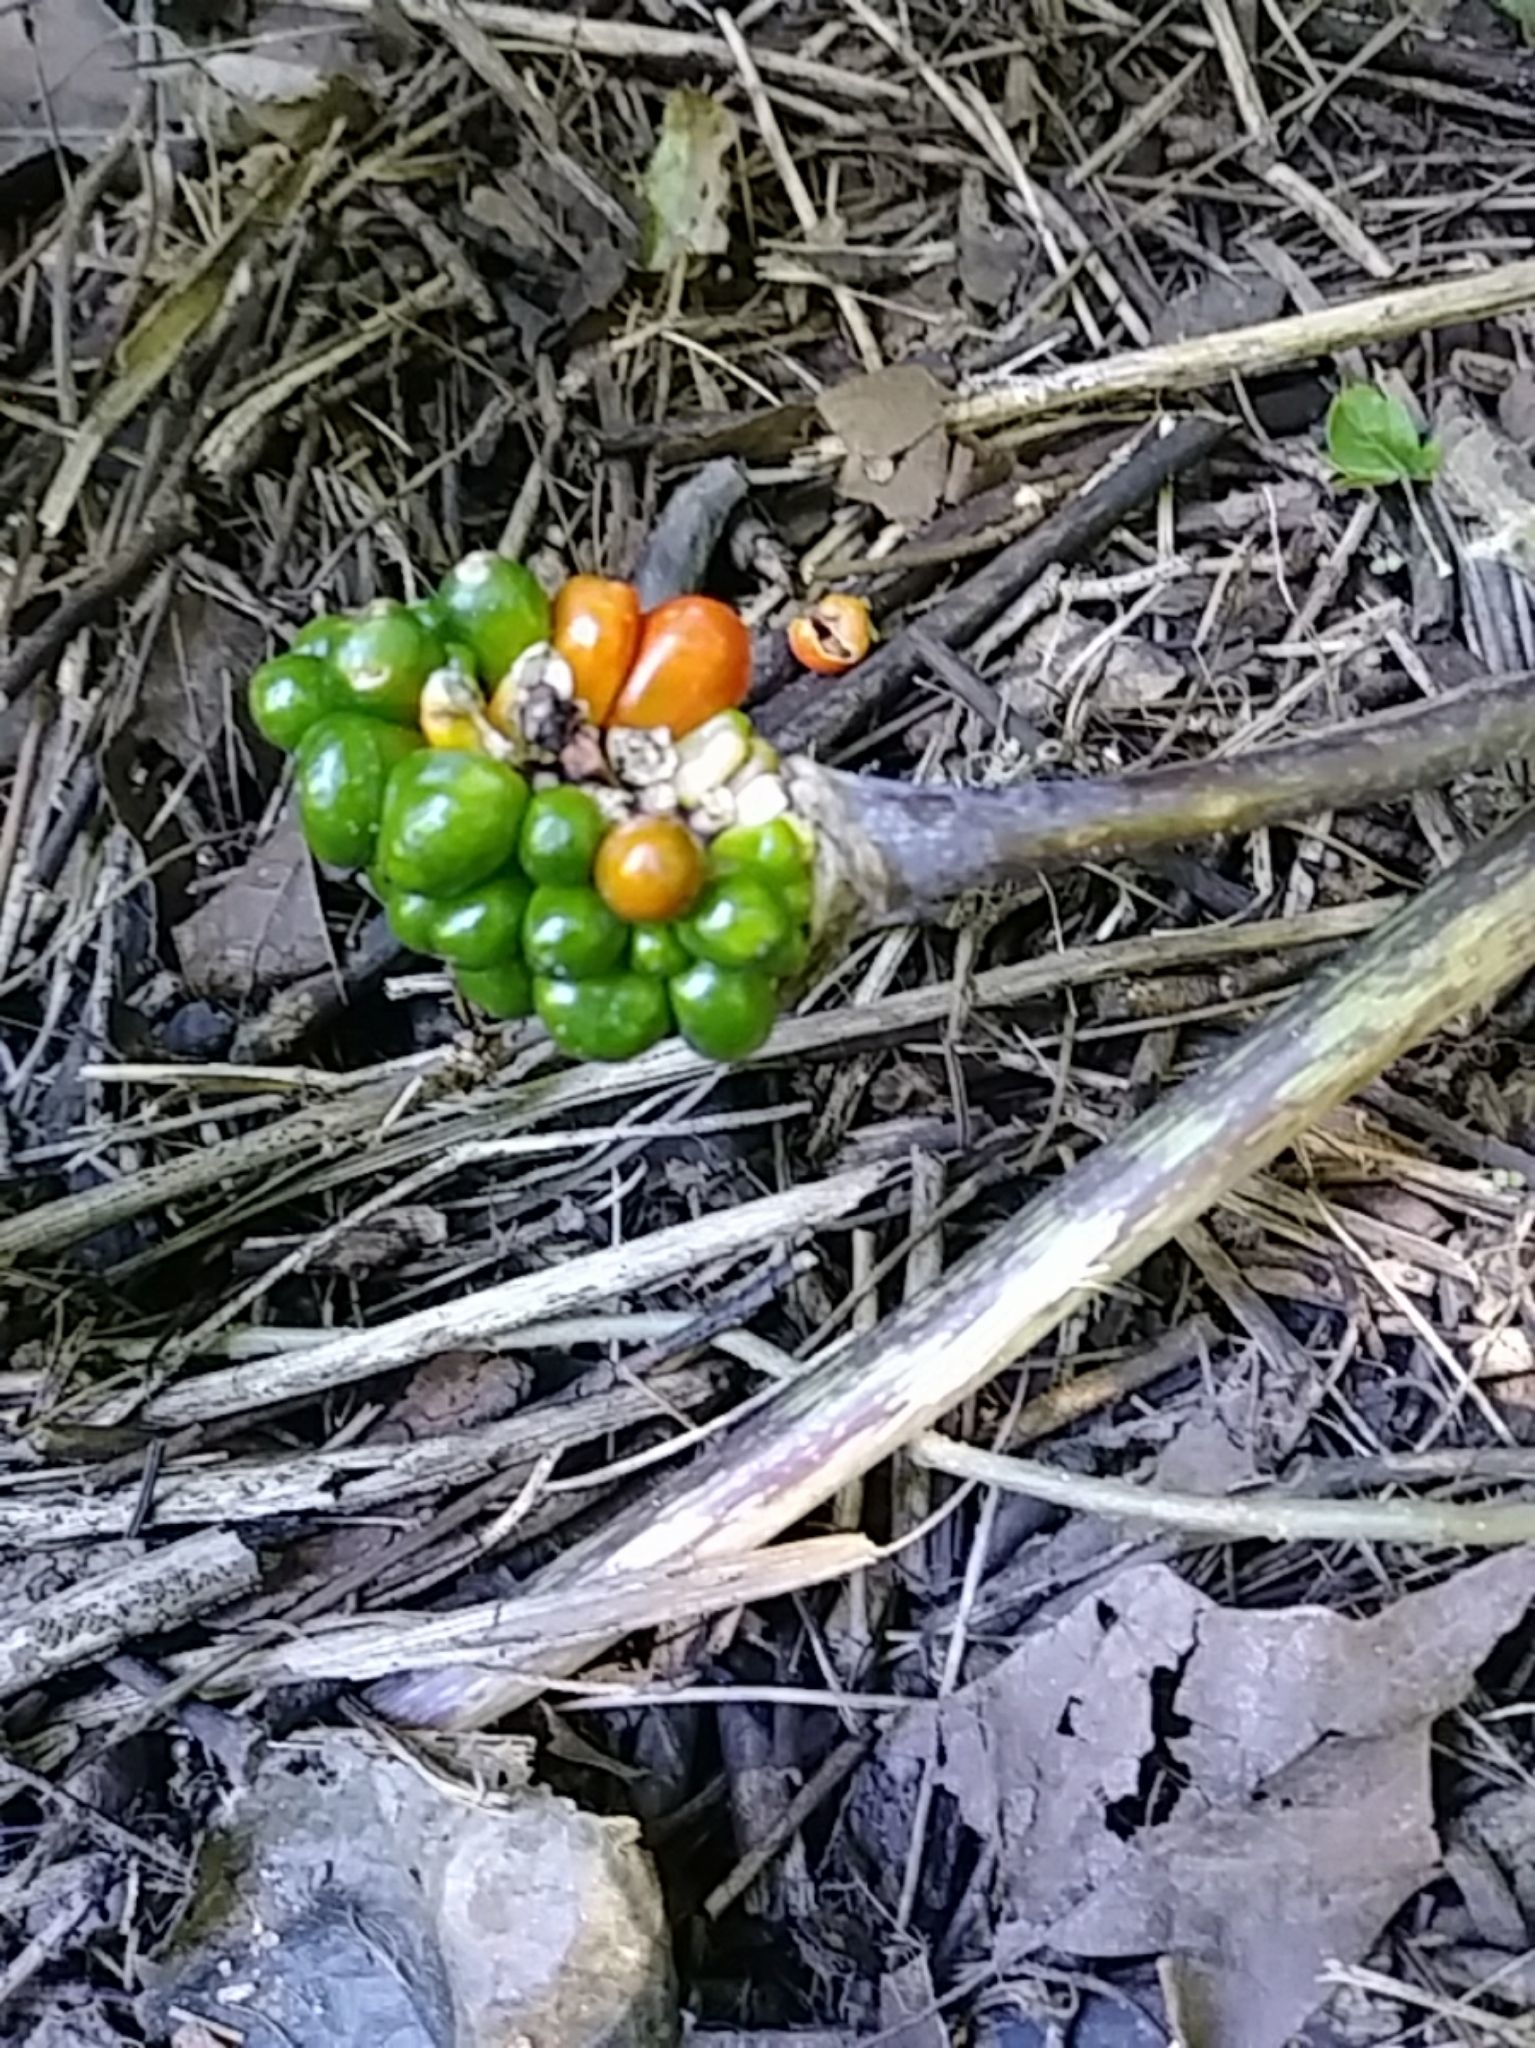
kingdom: Plantae
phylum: Tracheophyta
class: Liliopsida
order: Alismatales
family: Araceae
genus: Arisaema
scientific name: Arisaema triphyllum
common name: Jack-in-the-pulpit
